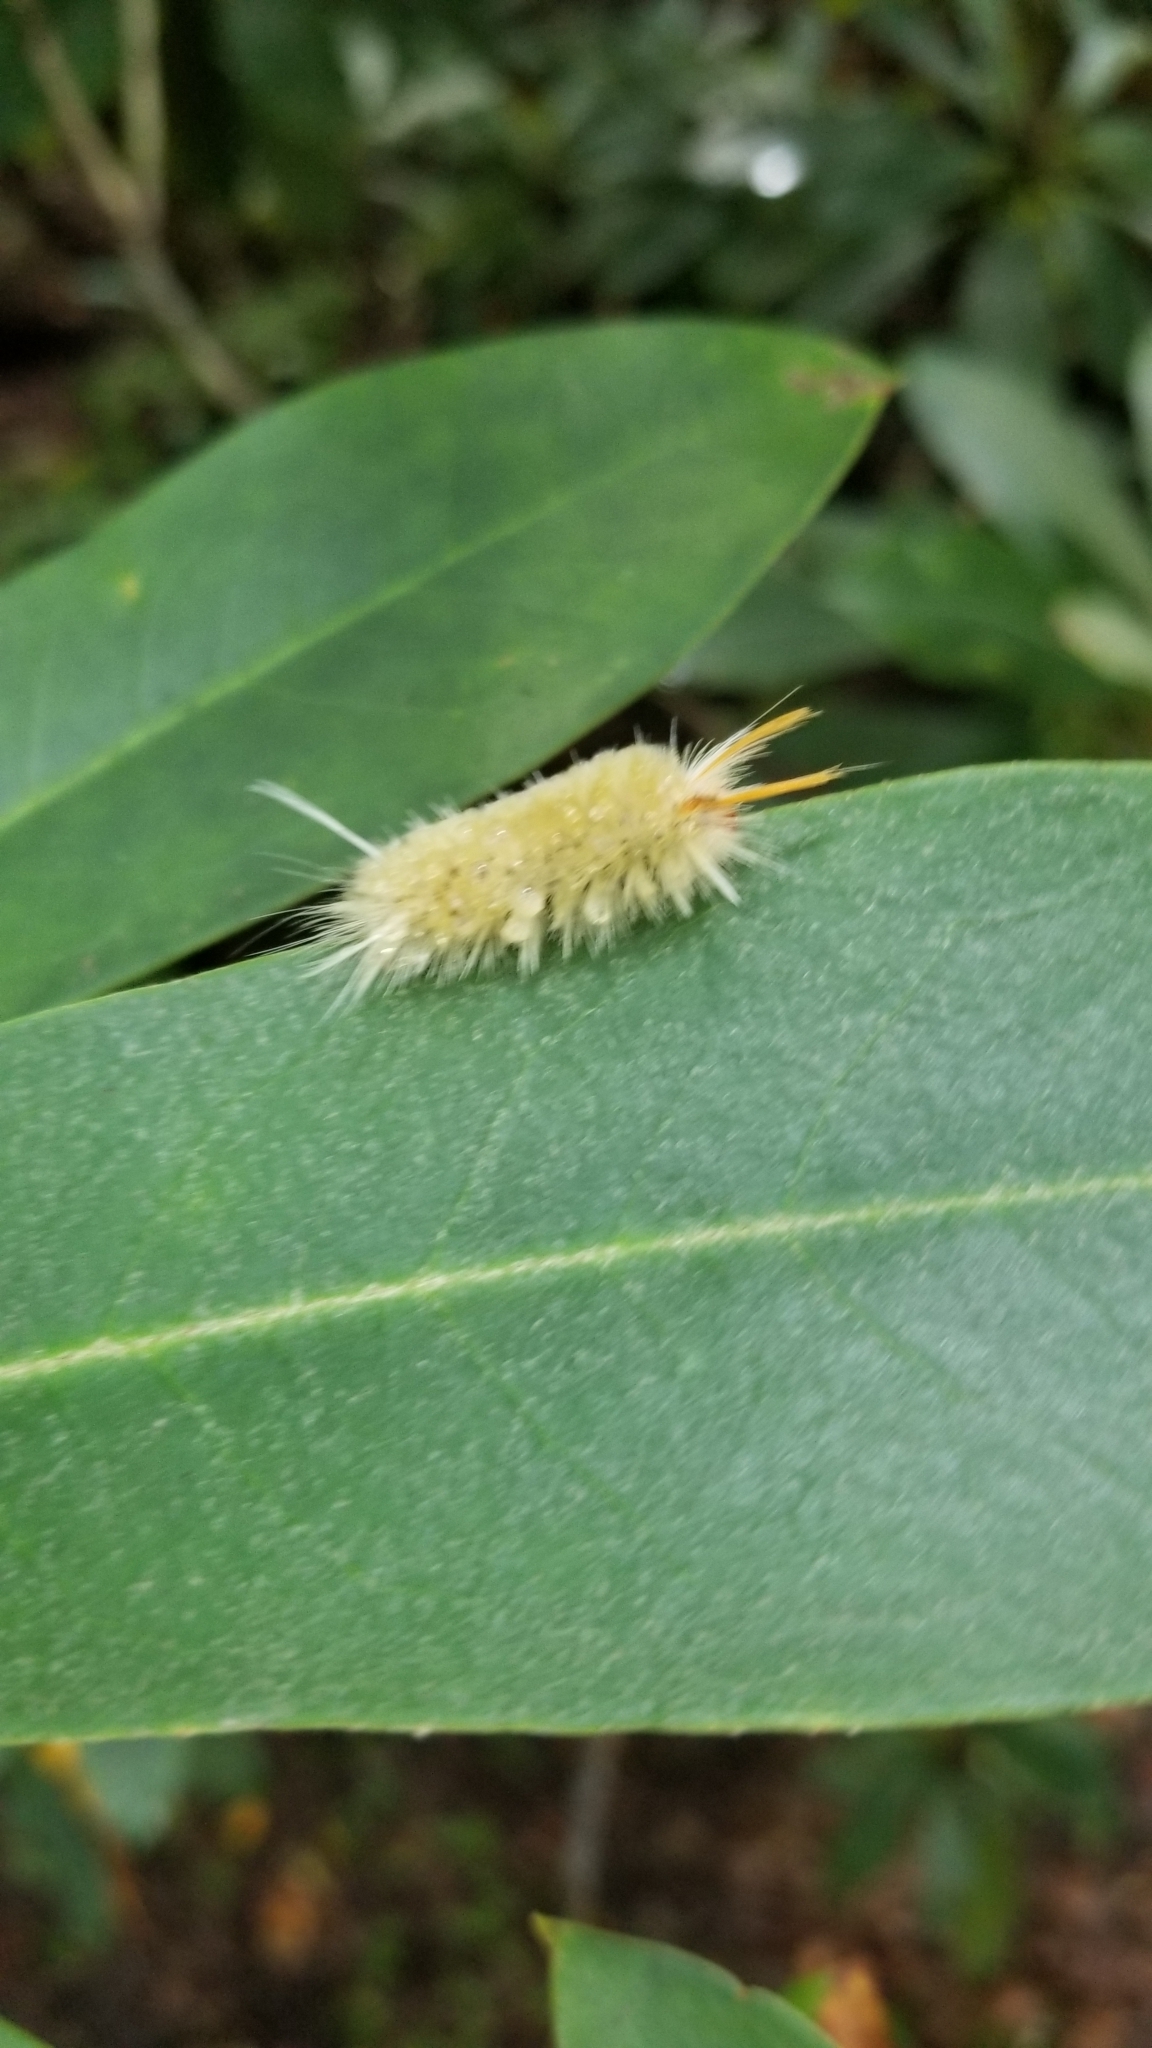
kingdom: Animalia
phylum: Arthropoda
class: Insecta
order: Lepidoptera
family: Erebidae
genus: Halysidota
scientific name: Halysidota harrisii
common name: Sycamore tussock moth
